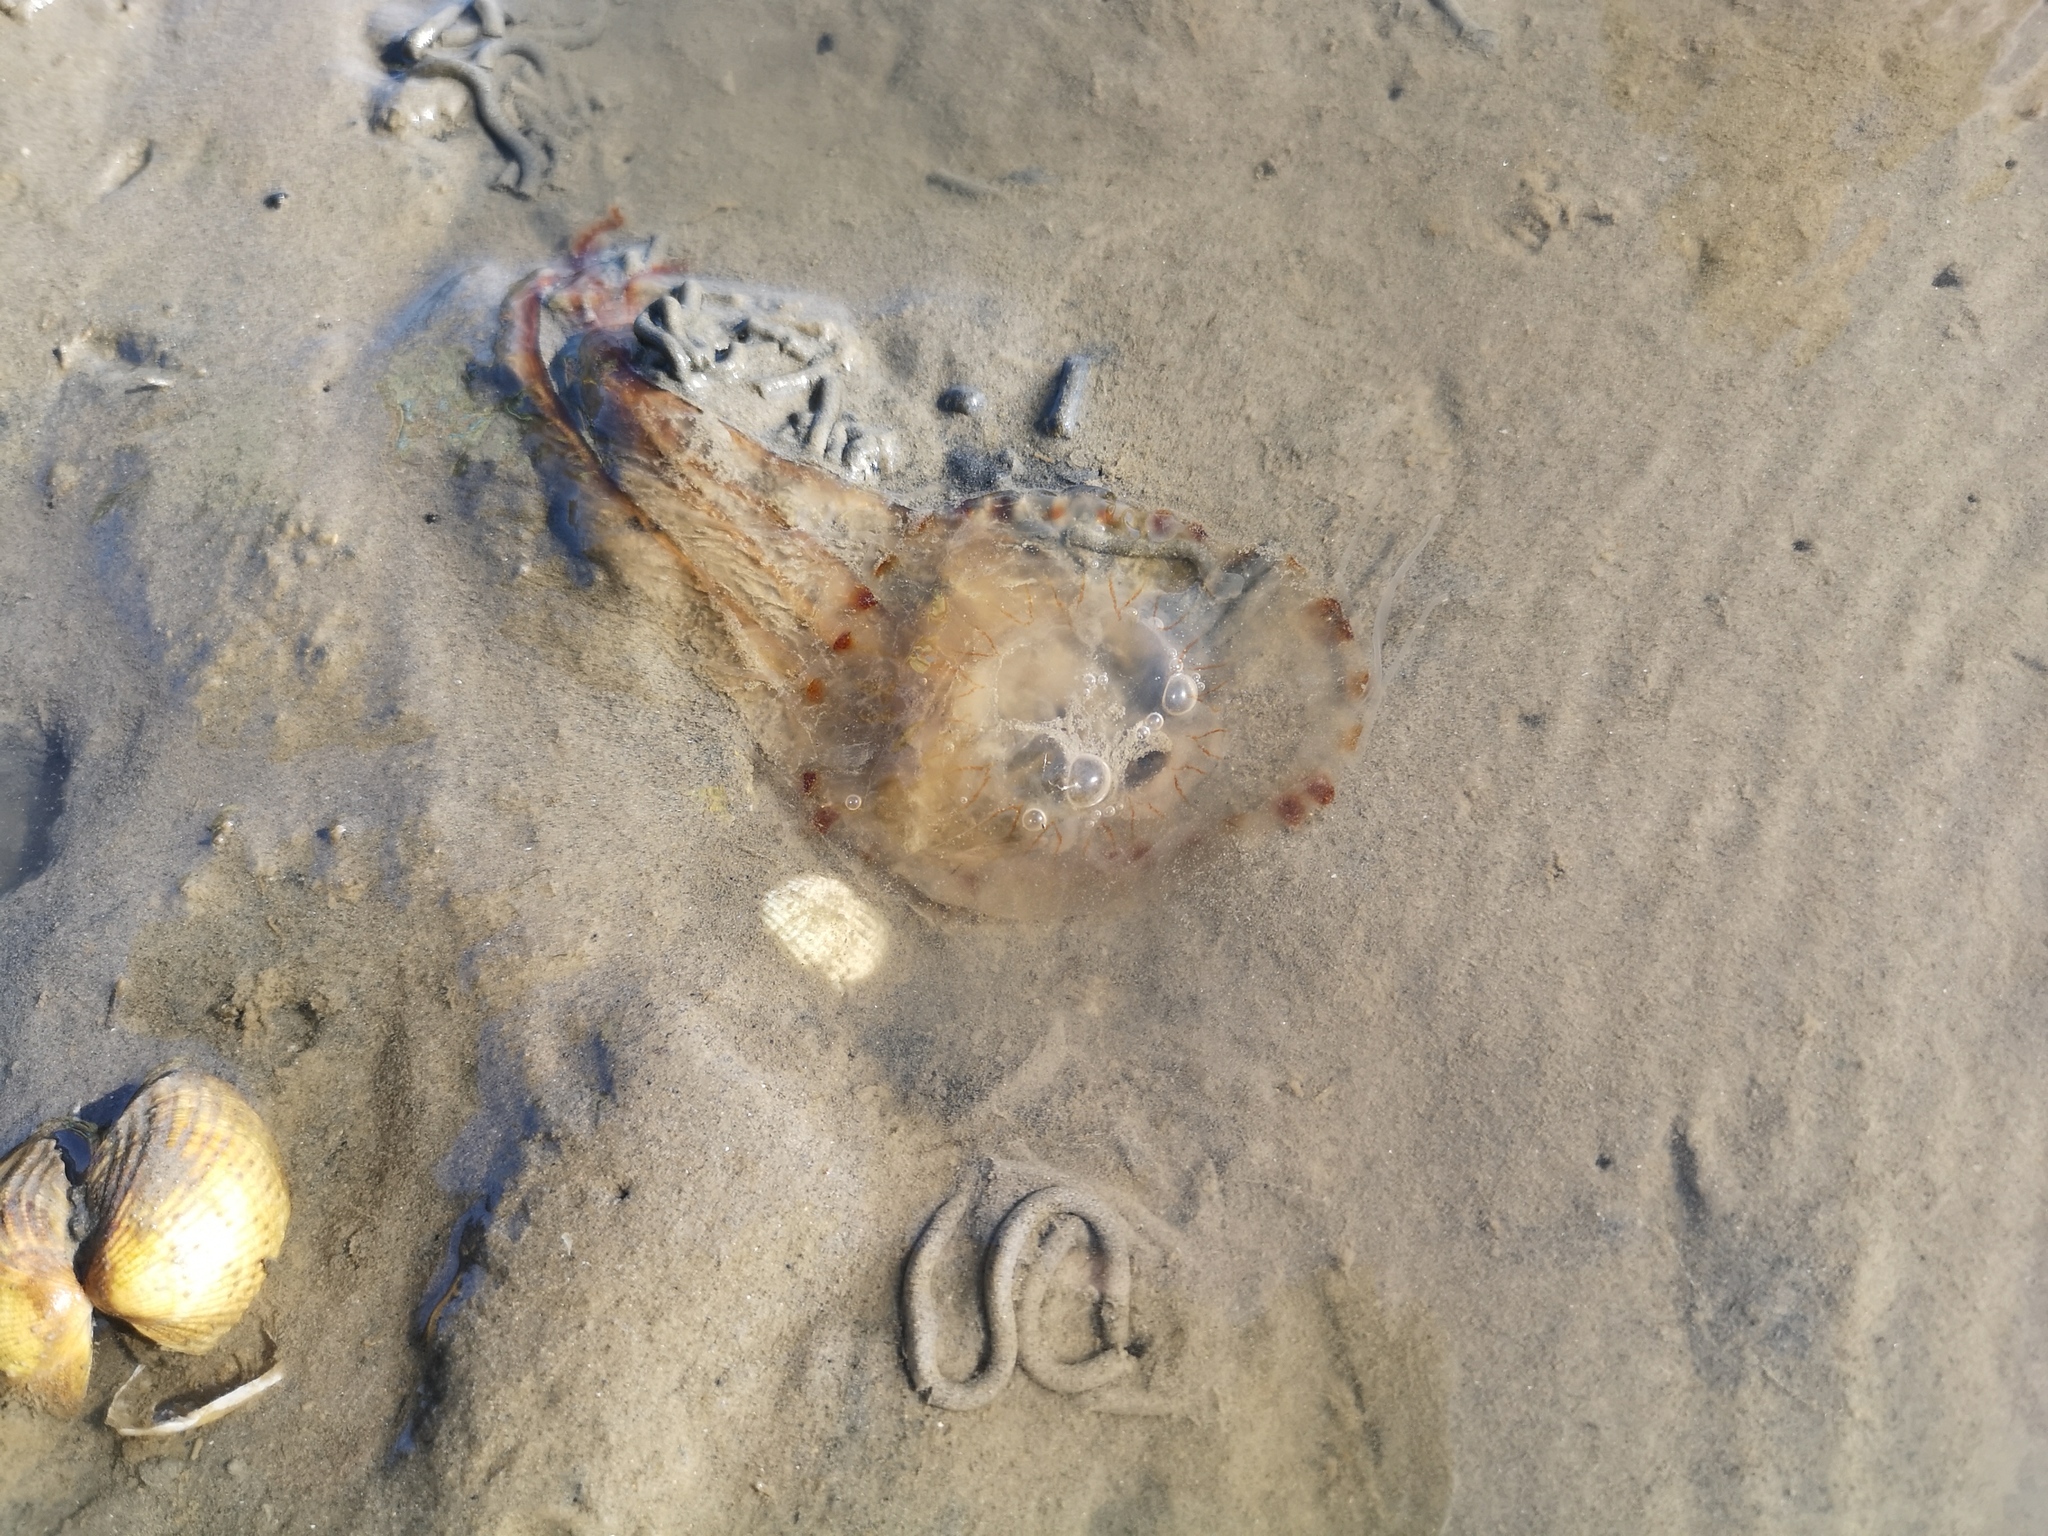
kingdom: Animalia
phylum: Cnidaria
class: Scyphozoa
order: Semaeostomeae
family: Pelagiidae
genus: Chrysaora
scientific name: Chrysaora hysoscella
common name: Compass jellyfish
